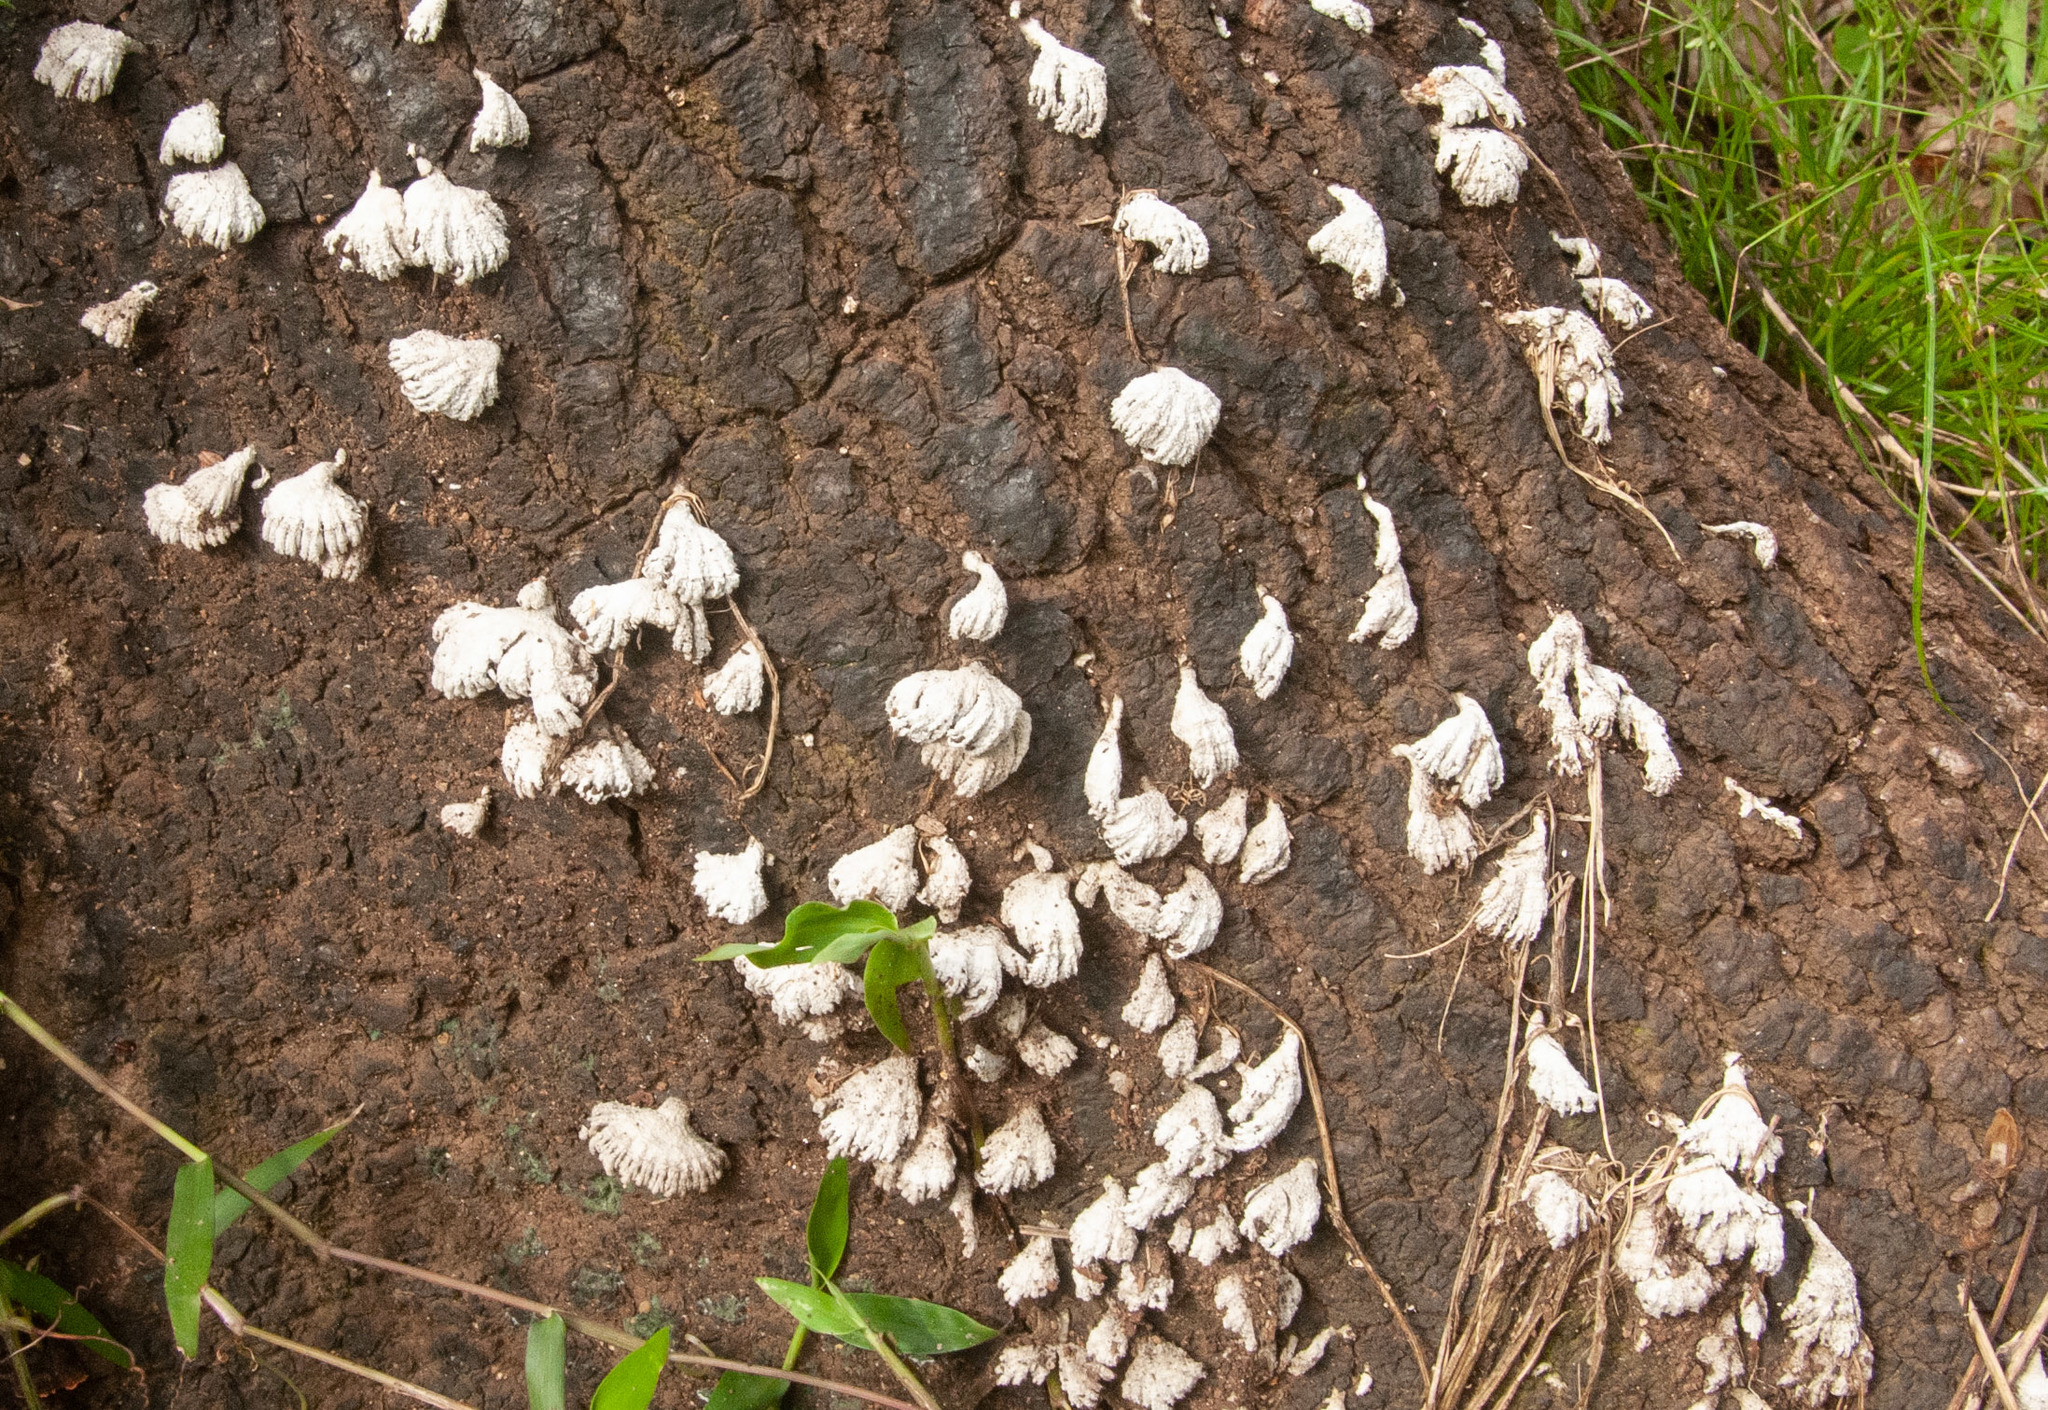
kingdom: Fungi
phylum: Basidiomycota
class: Agaricomycetes
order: Agaricales
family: Schizophyllaceae
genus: Schizophyllum
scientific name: Schizophyllum commune
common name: Common porecrust
